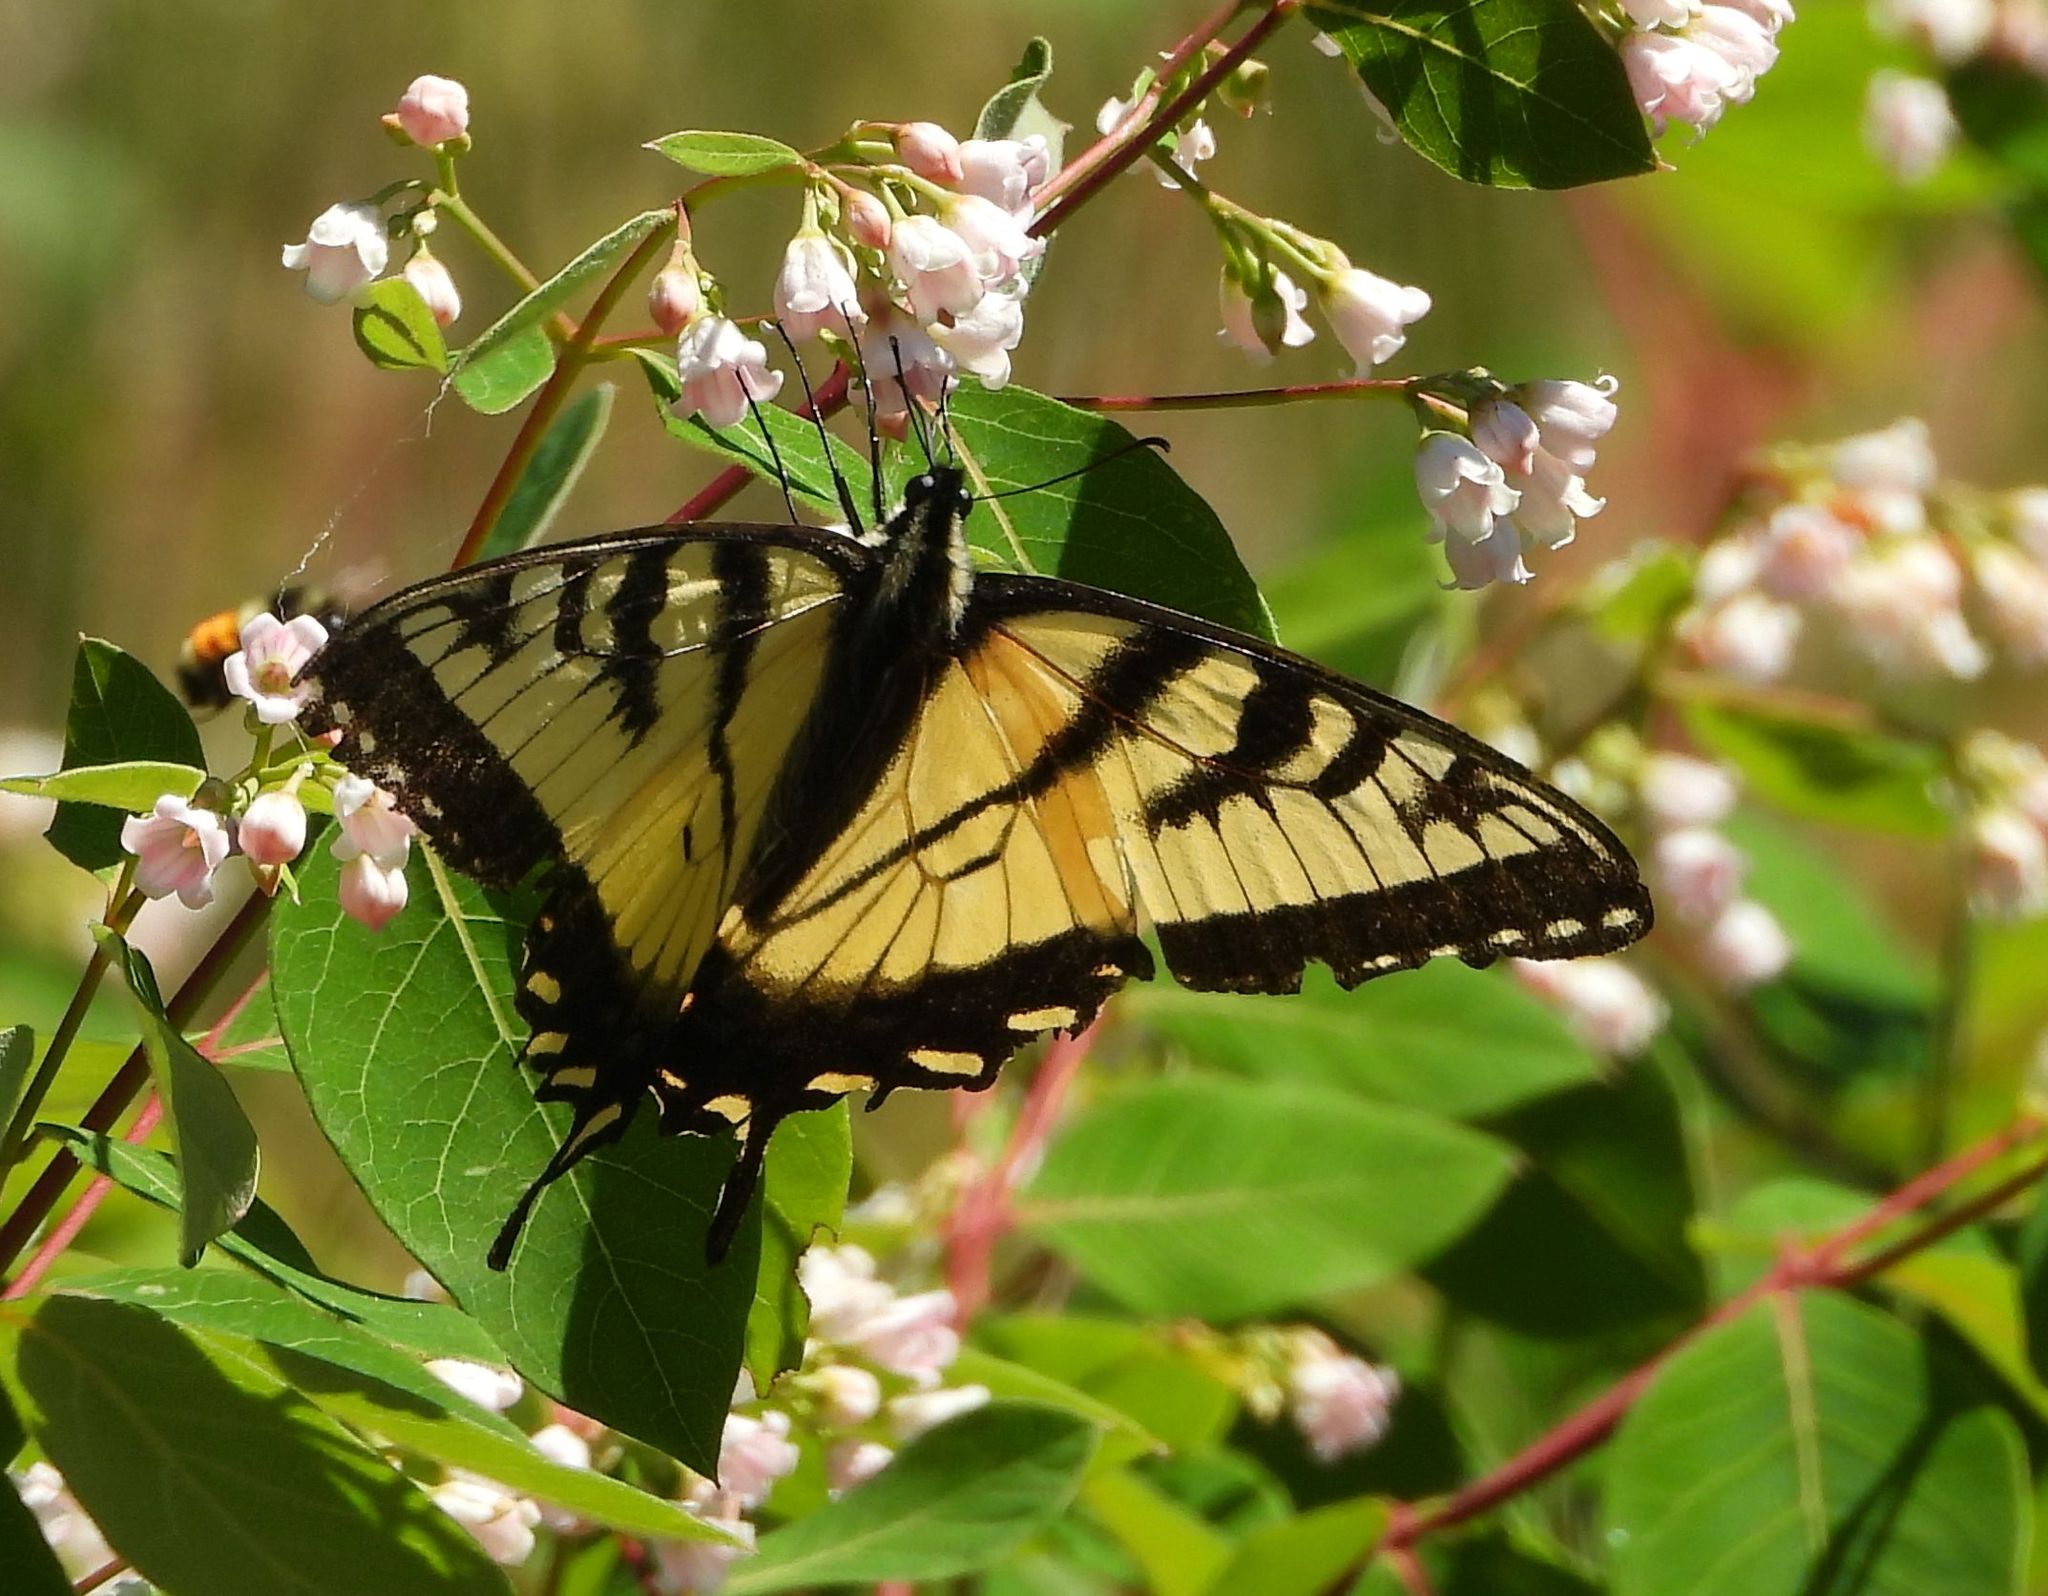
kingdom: Animalia
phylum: Arthropoda
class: Insecta
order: Lepidoptera
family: Papilionidae
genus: Papilio
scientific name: Papilio canadensis
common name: Canadian tiger swallowtail
